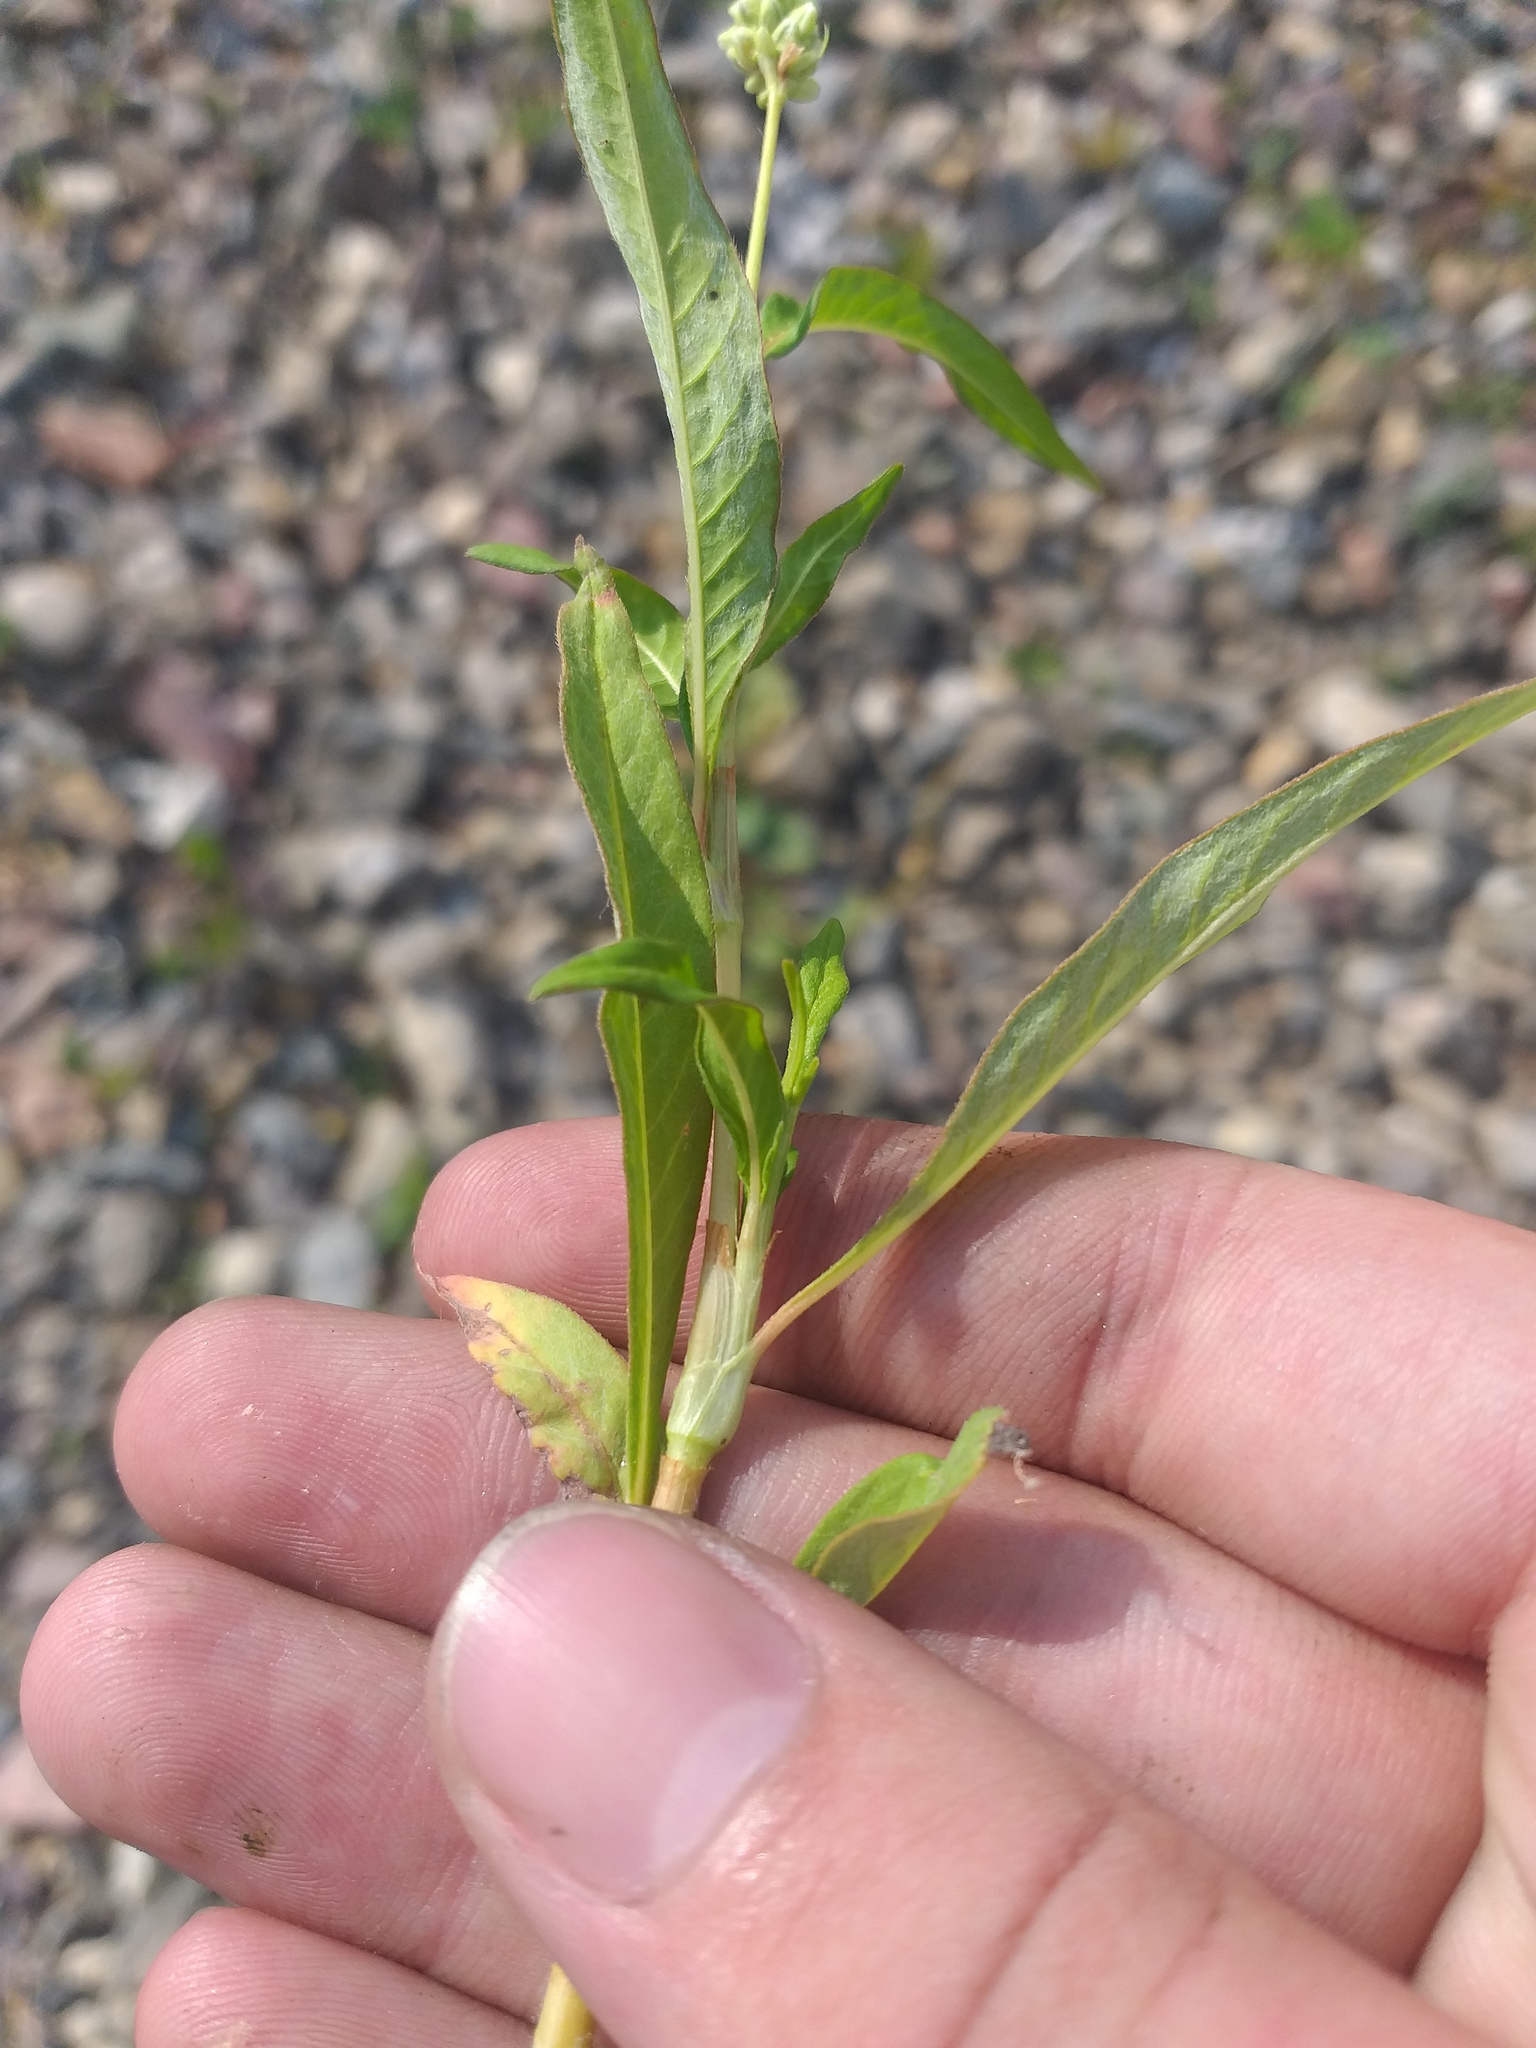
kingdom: Plantae
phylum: Tracheophyta
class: Magnoliopsida
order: Caryophyllales
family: Polygonaceae
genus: Persicaria
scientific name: Persicaria lapathifolia
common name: Curlytop knotweed
